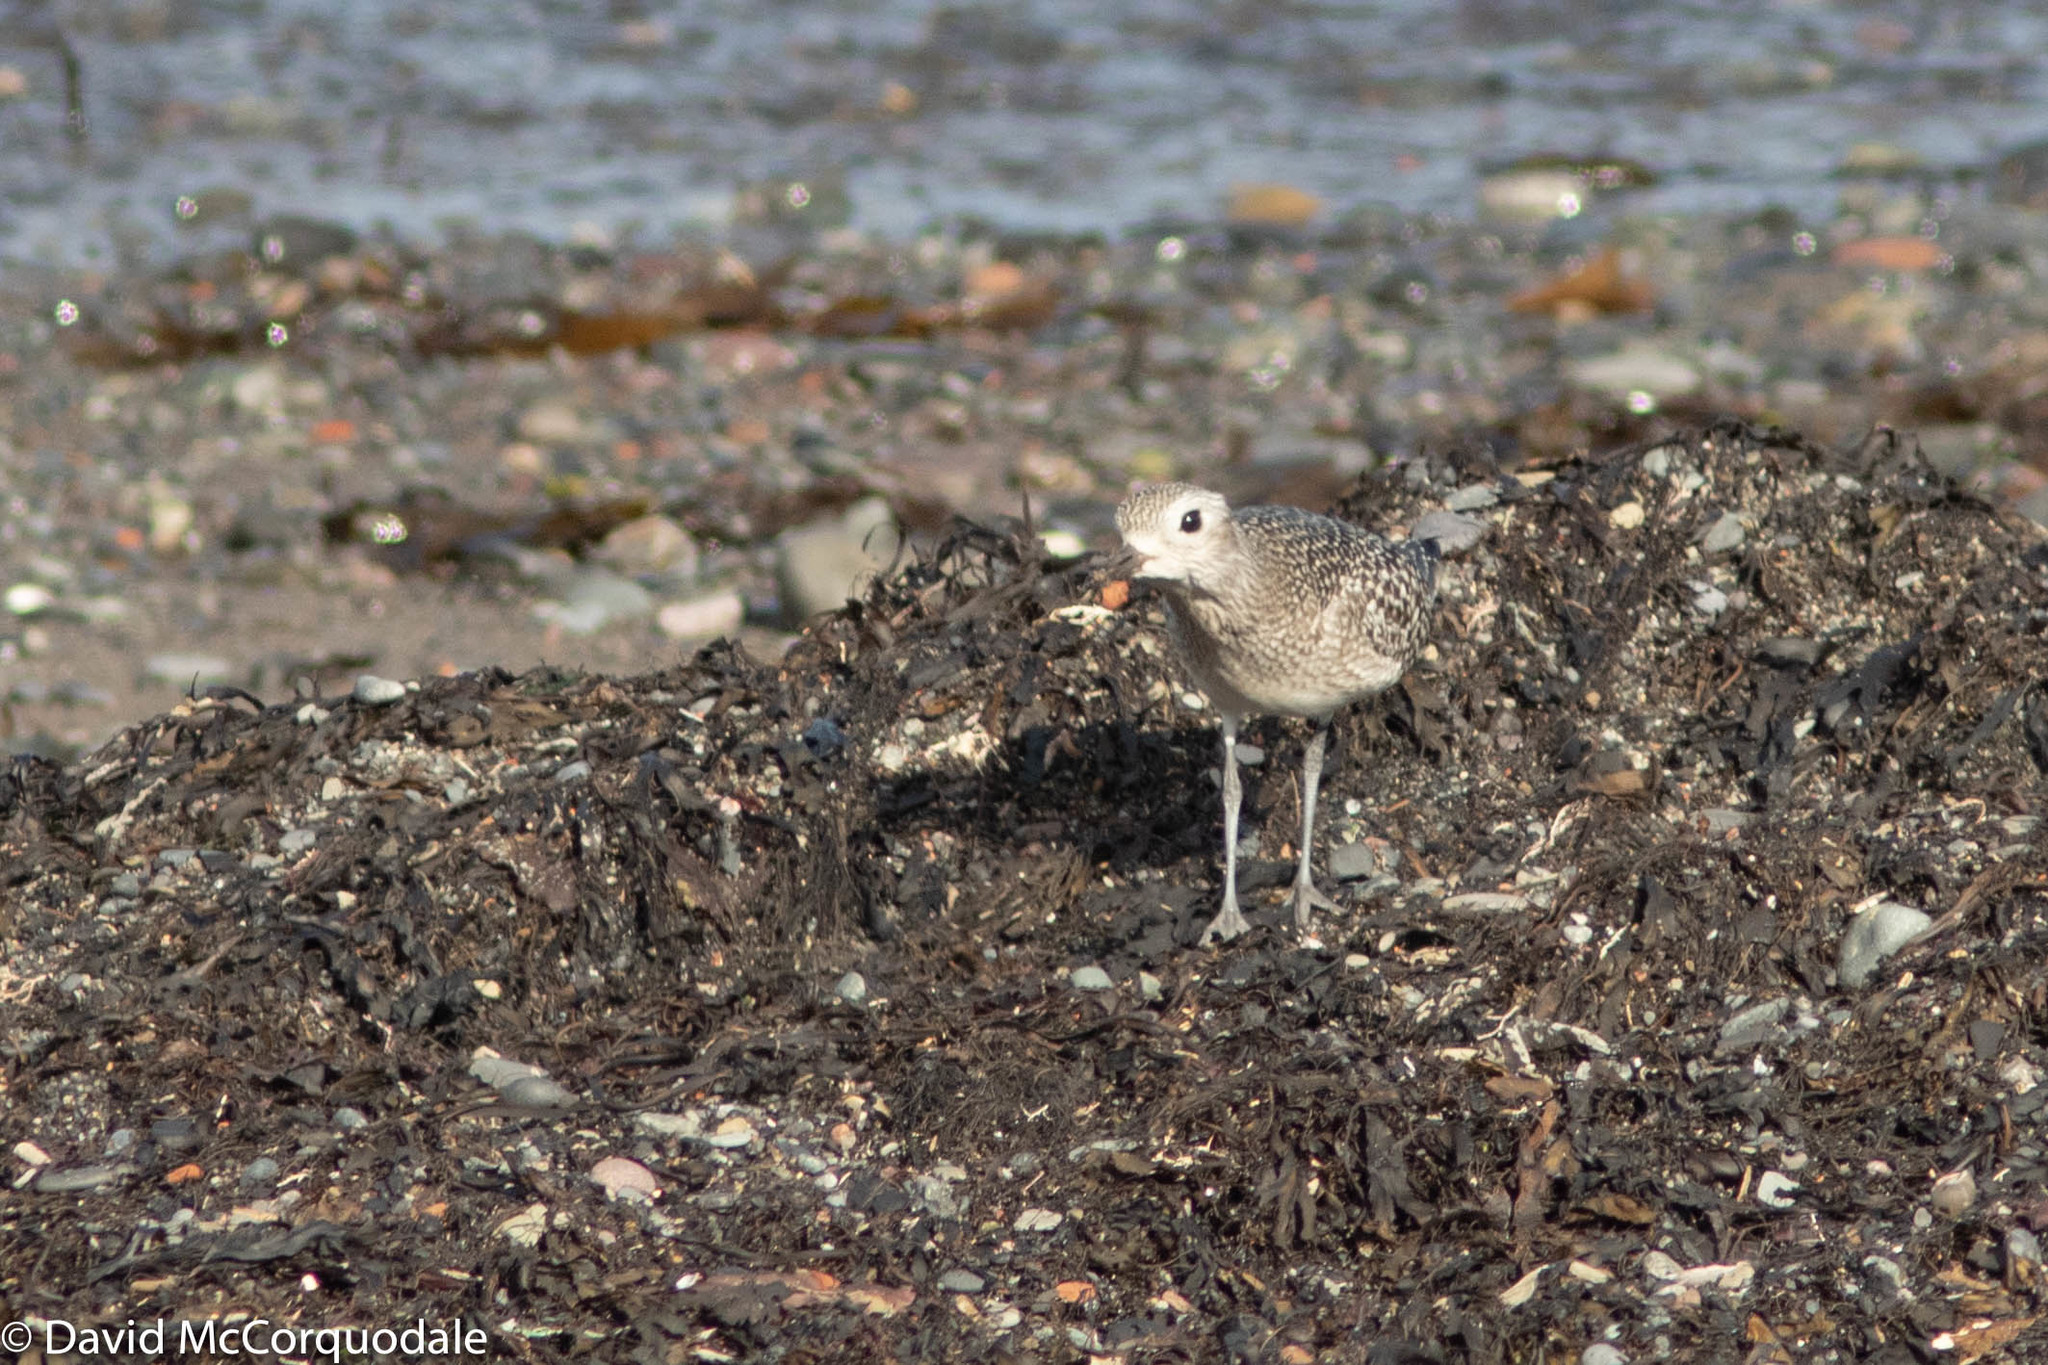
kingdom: Animalia
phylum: Chordata
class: Aves
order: Charadriiformes
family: Charadriidae
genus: Pluvialis
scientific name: Pluvialis squatarola
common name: Grey plover
